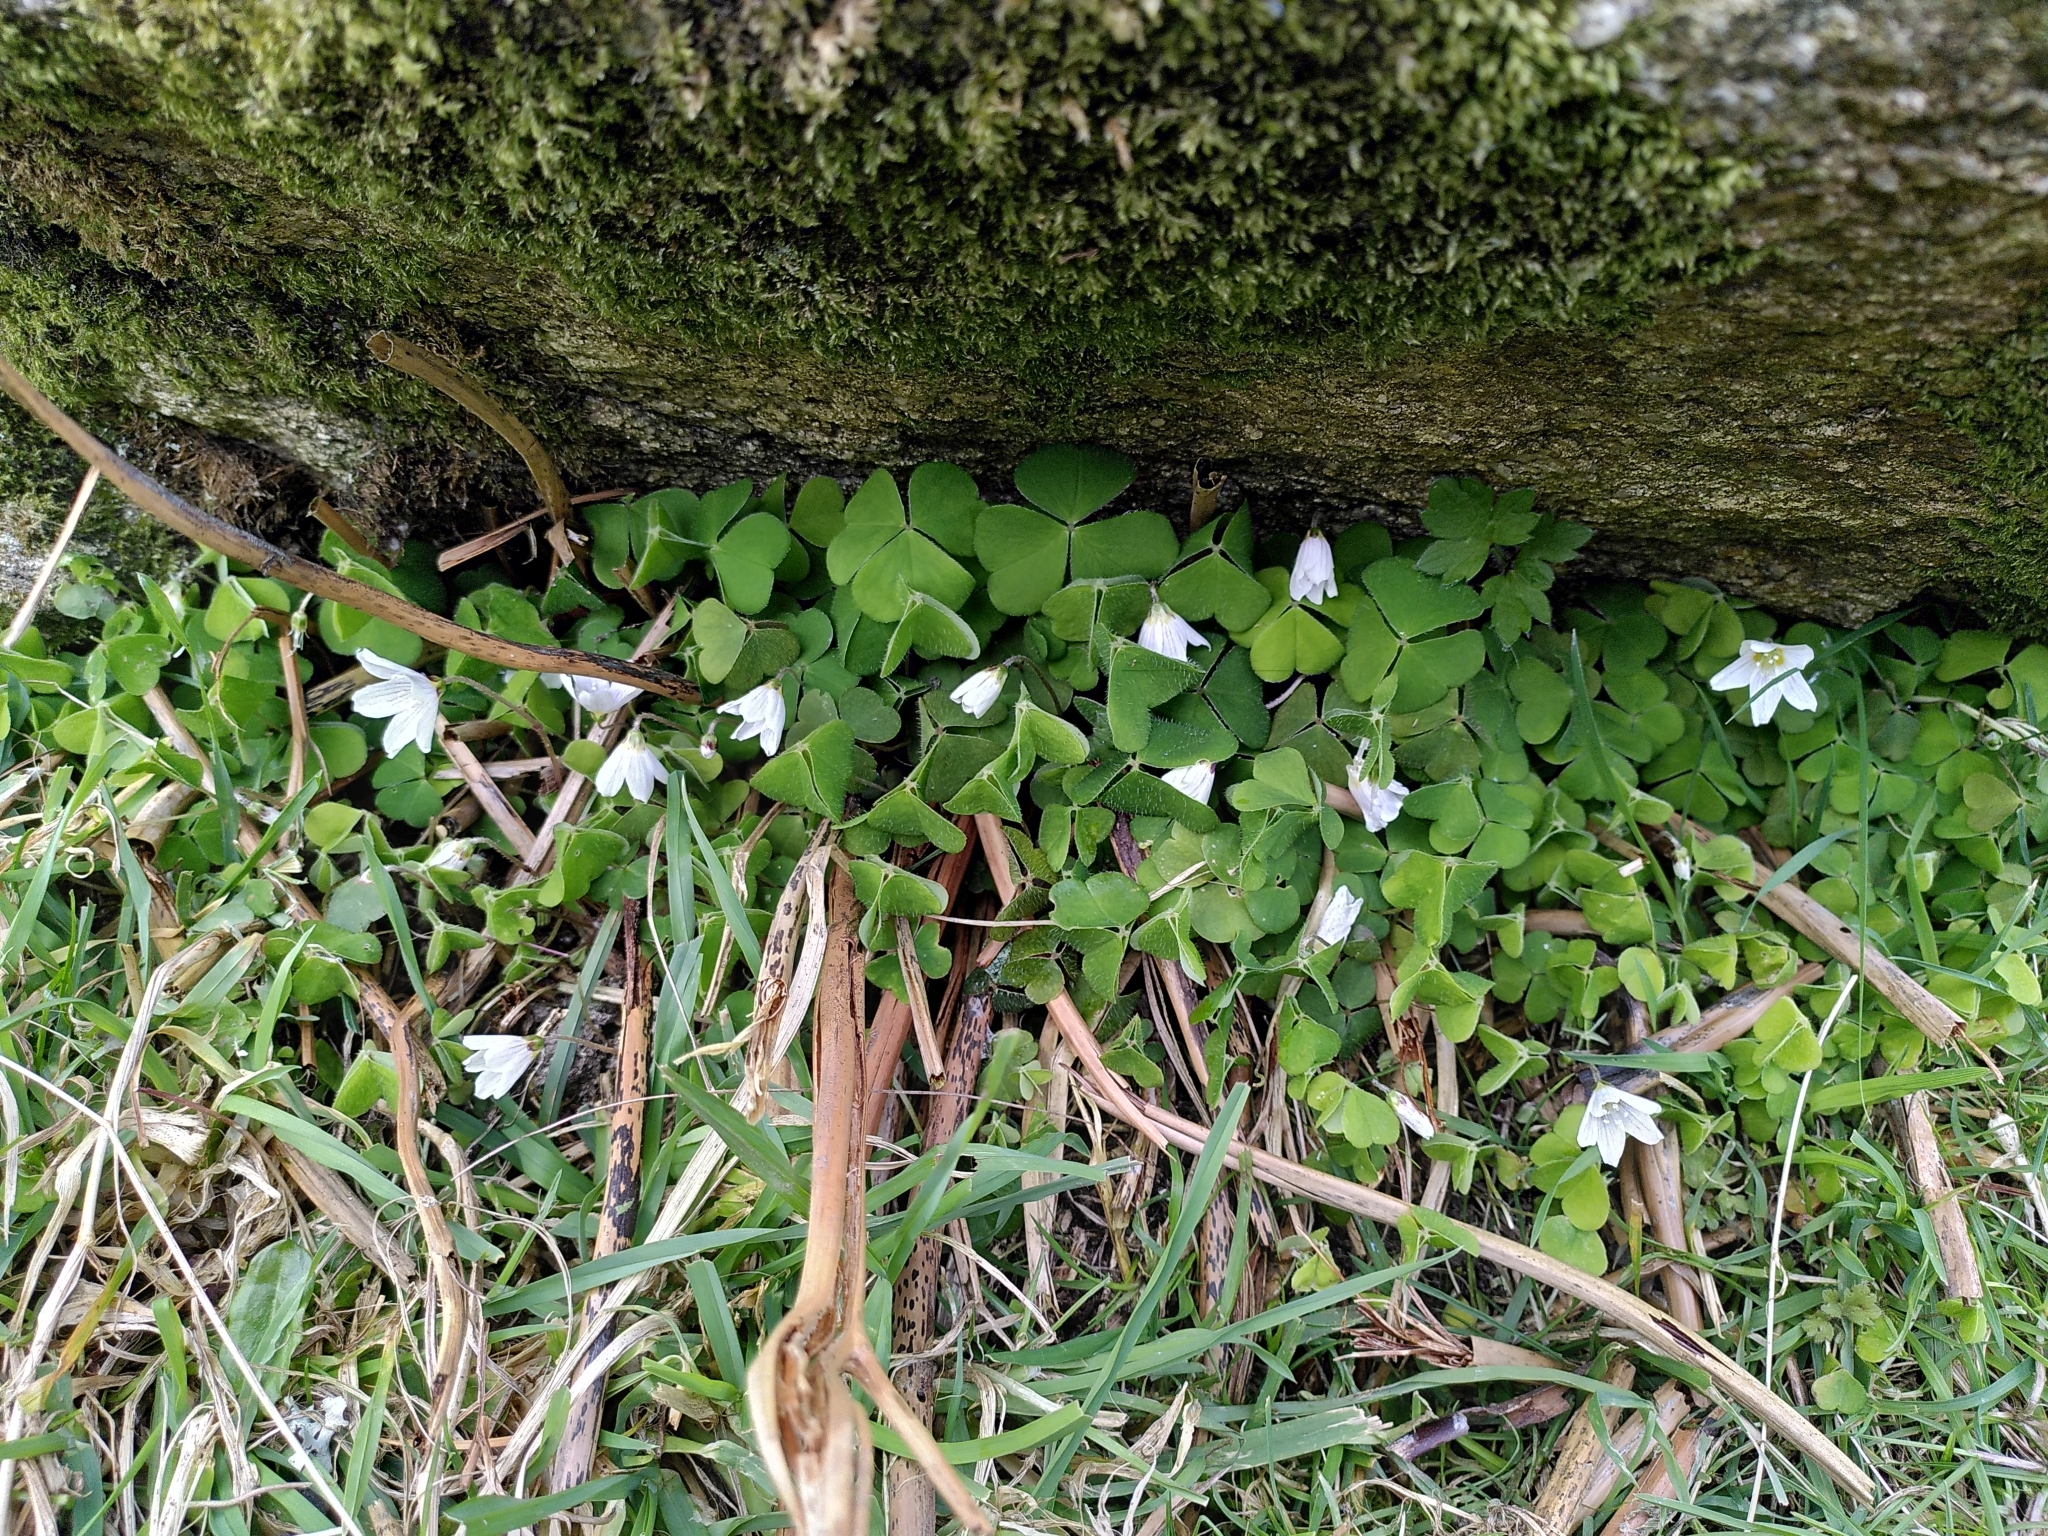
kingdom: Plantae
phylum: Tracheophyta
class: Magnoliopsida
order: Oxalidales
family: Oxalidaceae
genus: Oxalis
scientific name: Oxalis acetosella
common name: Wood-sorrel
